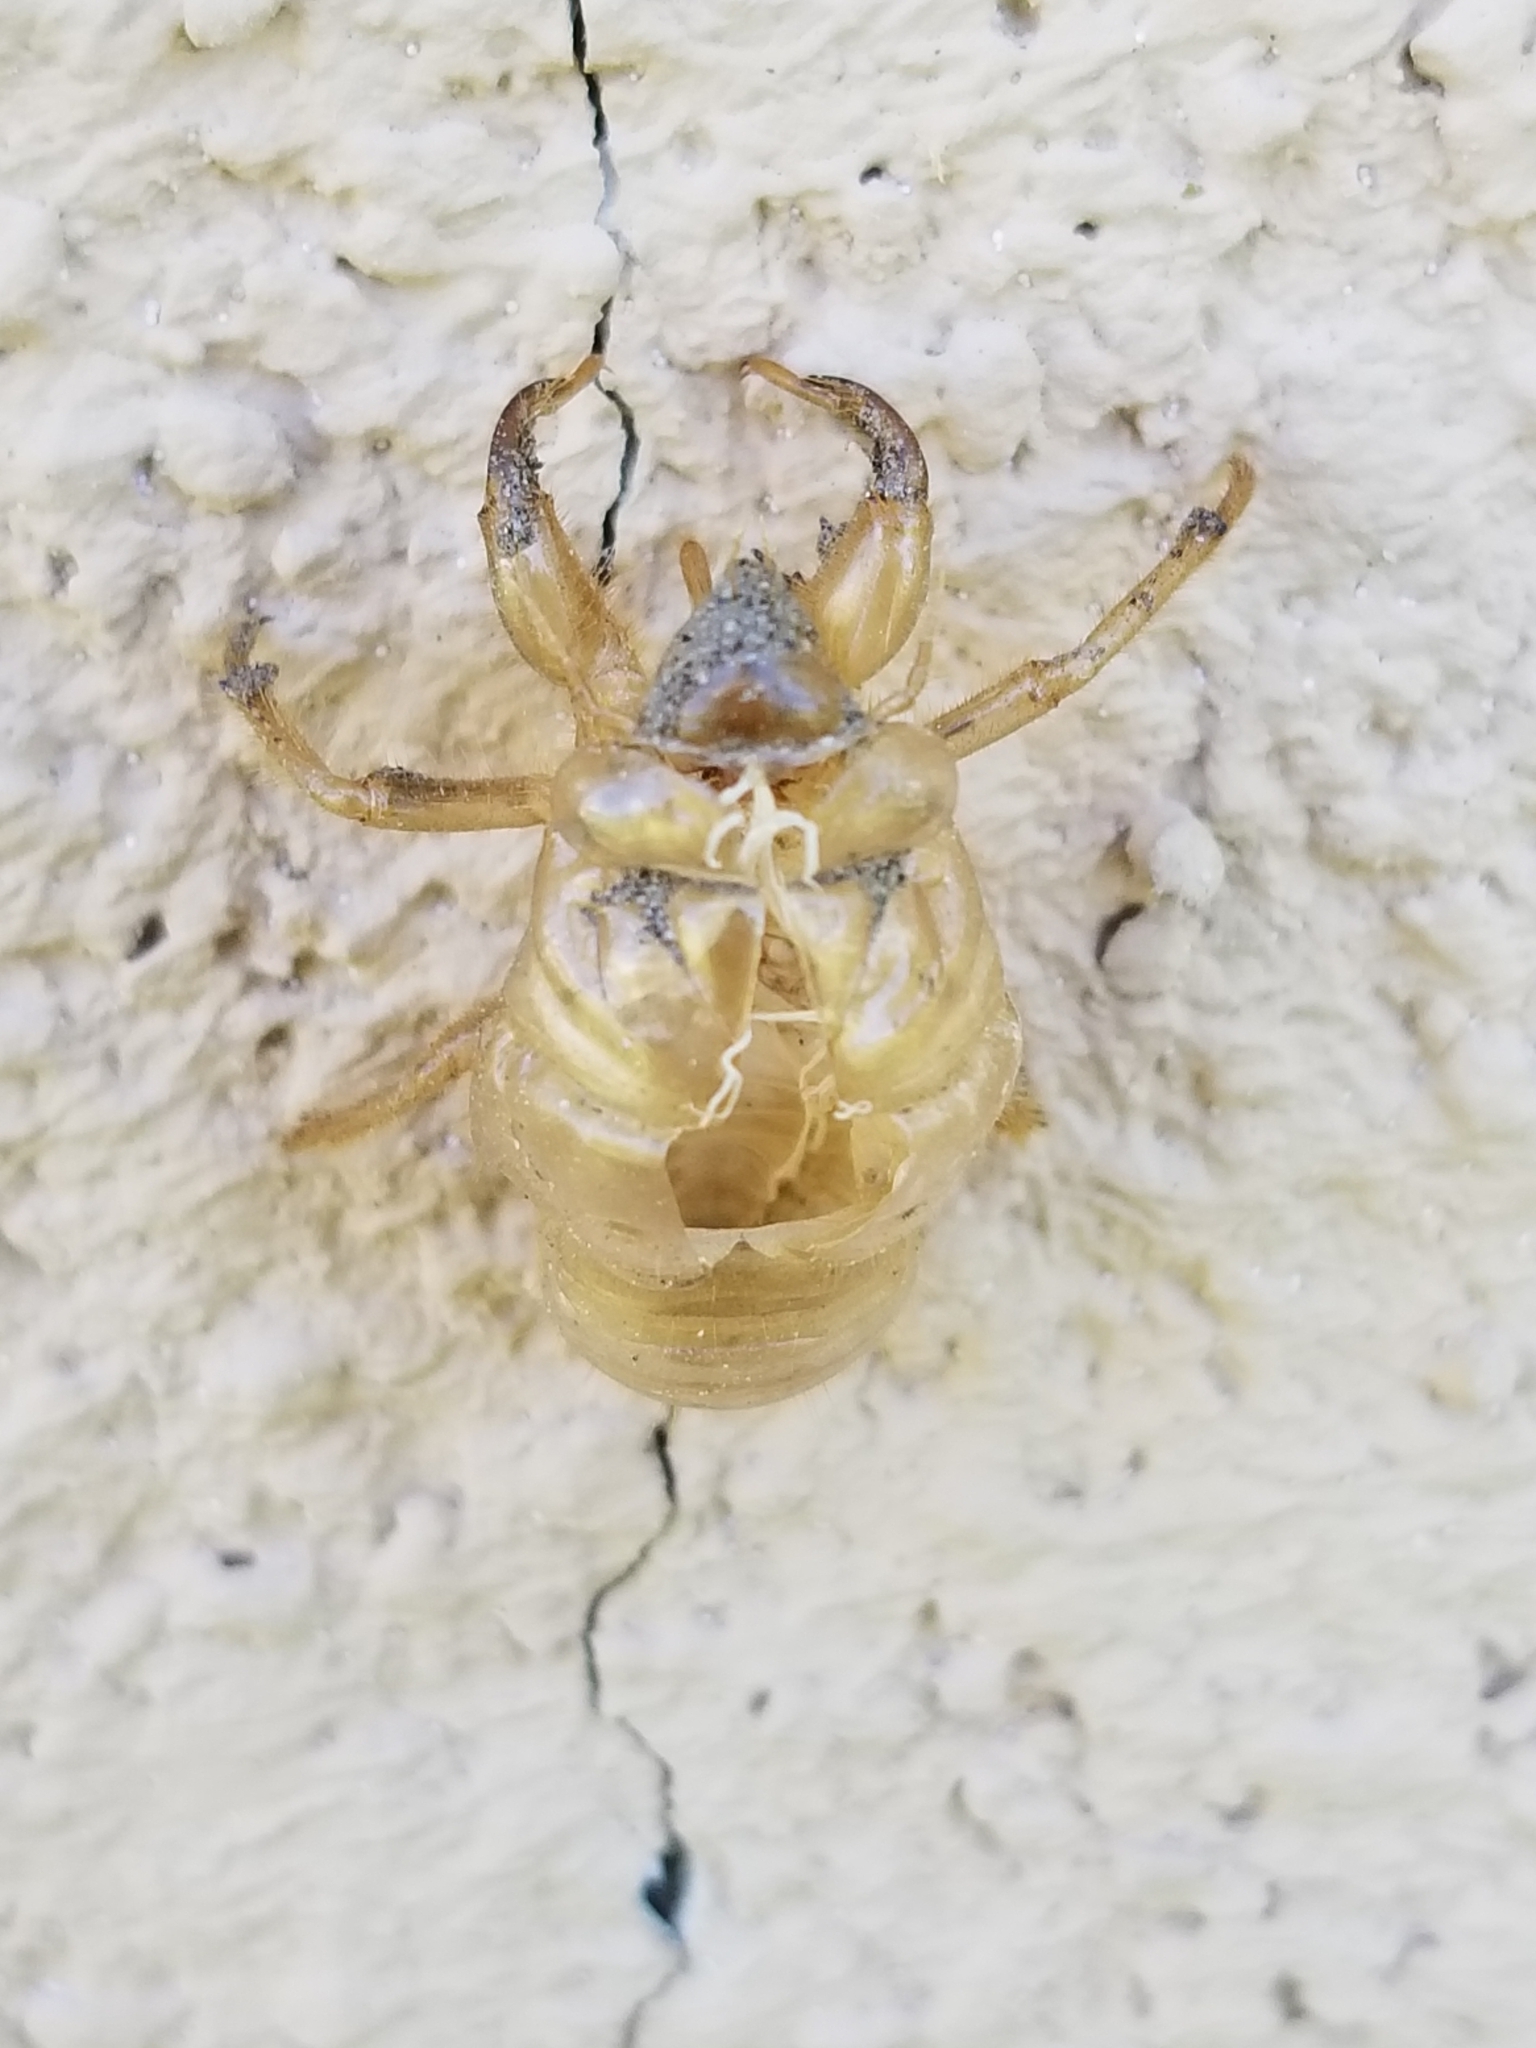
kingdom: Animalia
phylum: Arthropoda
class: Insecta
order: Hemiptera
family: Cicadidae
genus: Diceroprocta
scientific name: Diceroprocta apache
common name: Desert cicada
